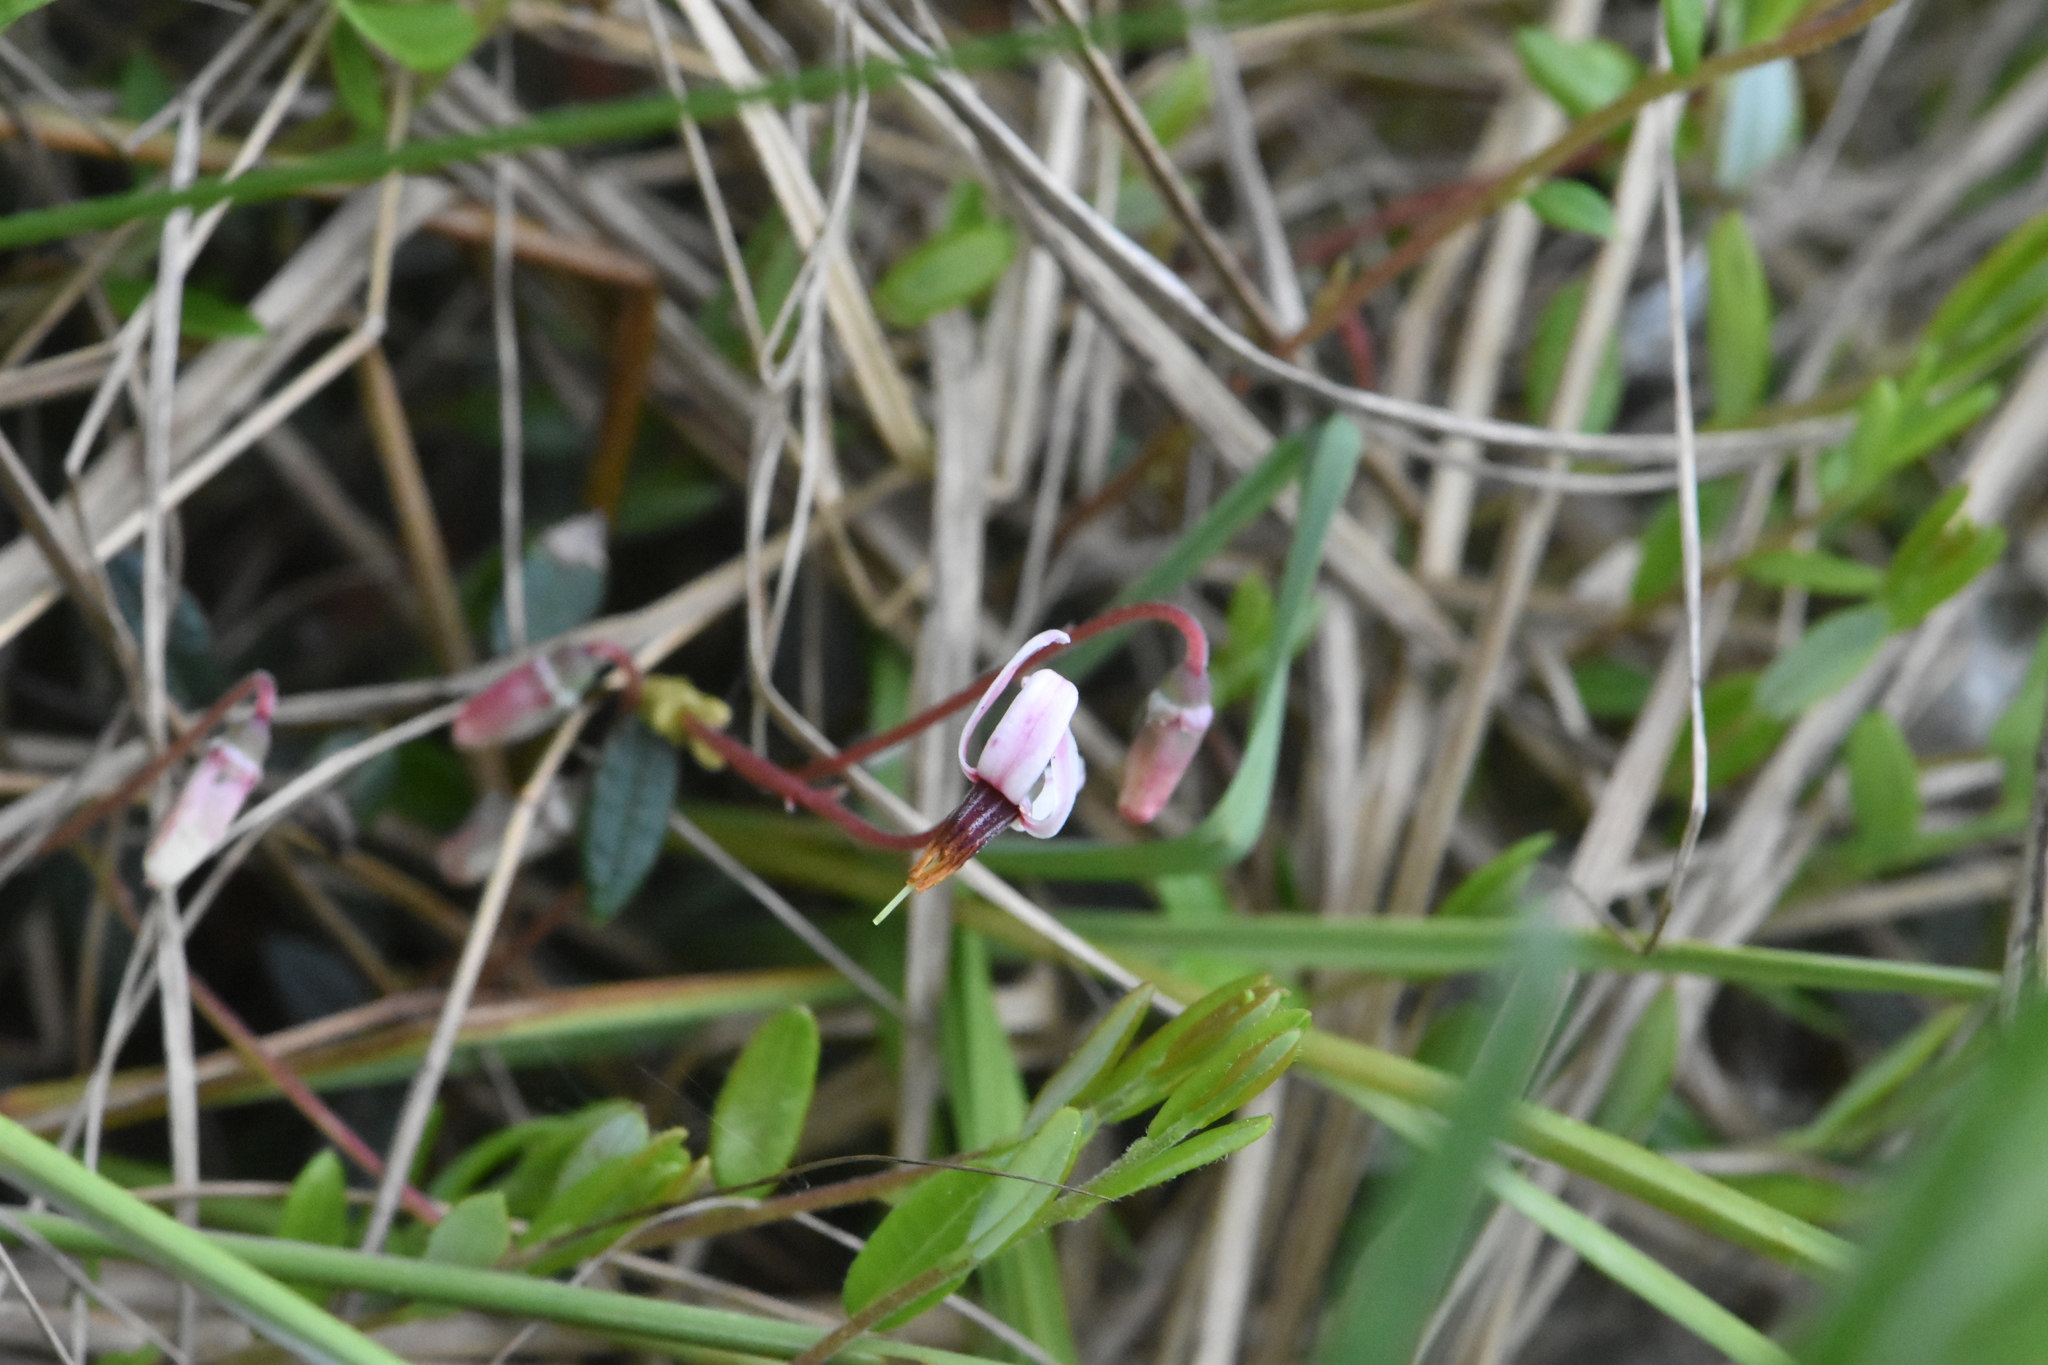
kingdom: Plantae
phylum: Tracheophyta
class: Magnoliopsida
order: Ericales
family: Ericaceae
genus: Vaccinium
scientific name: Vaccinium oxycoccos
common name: Cranberry
